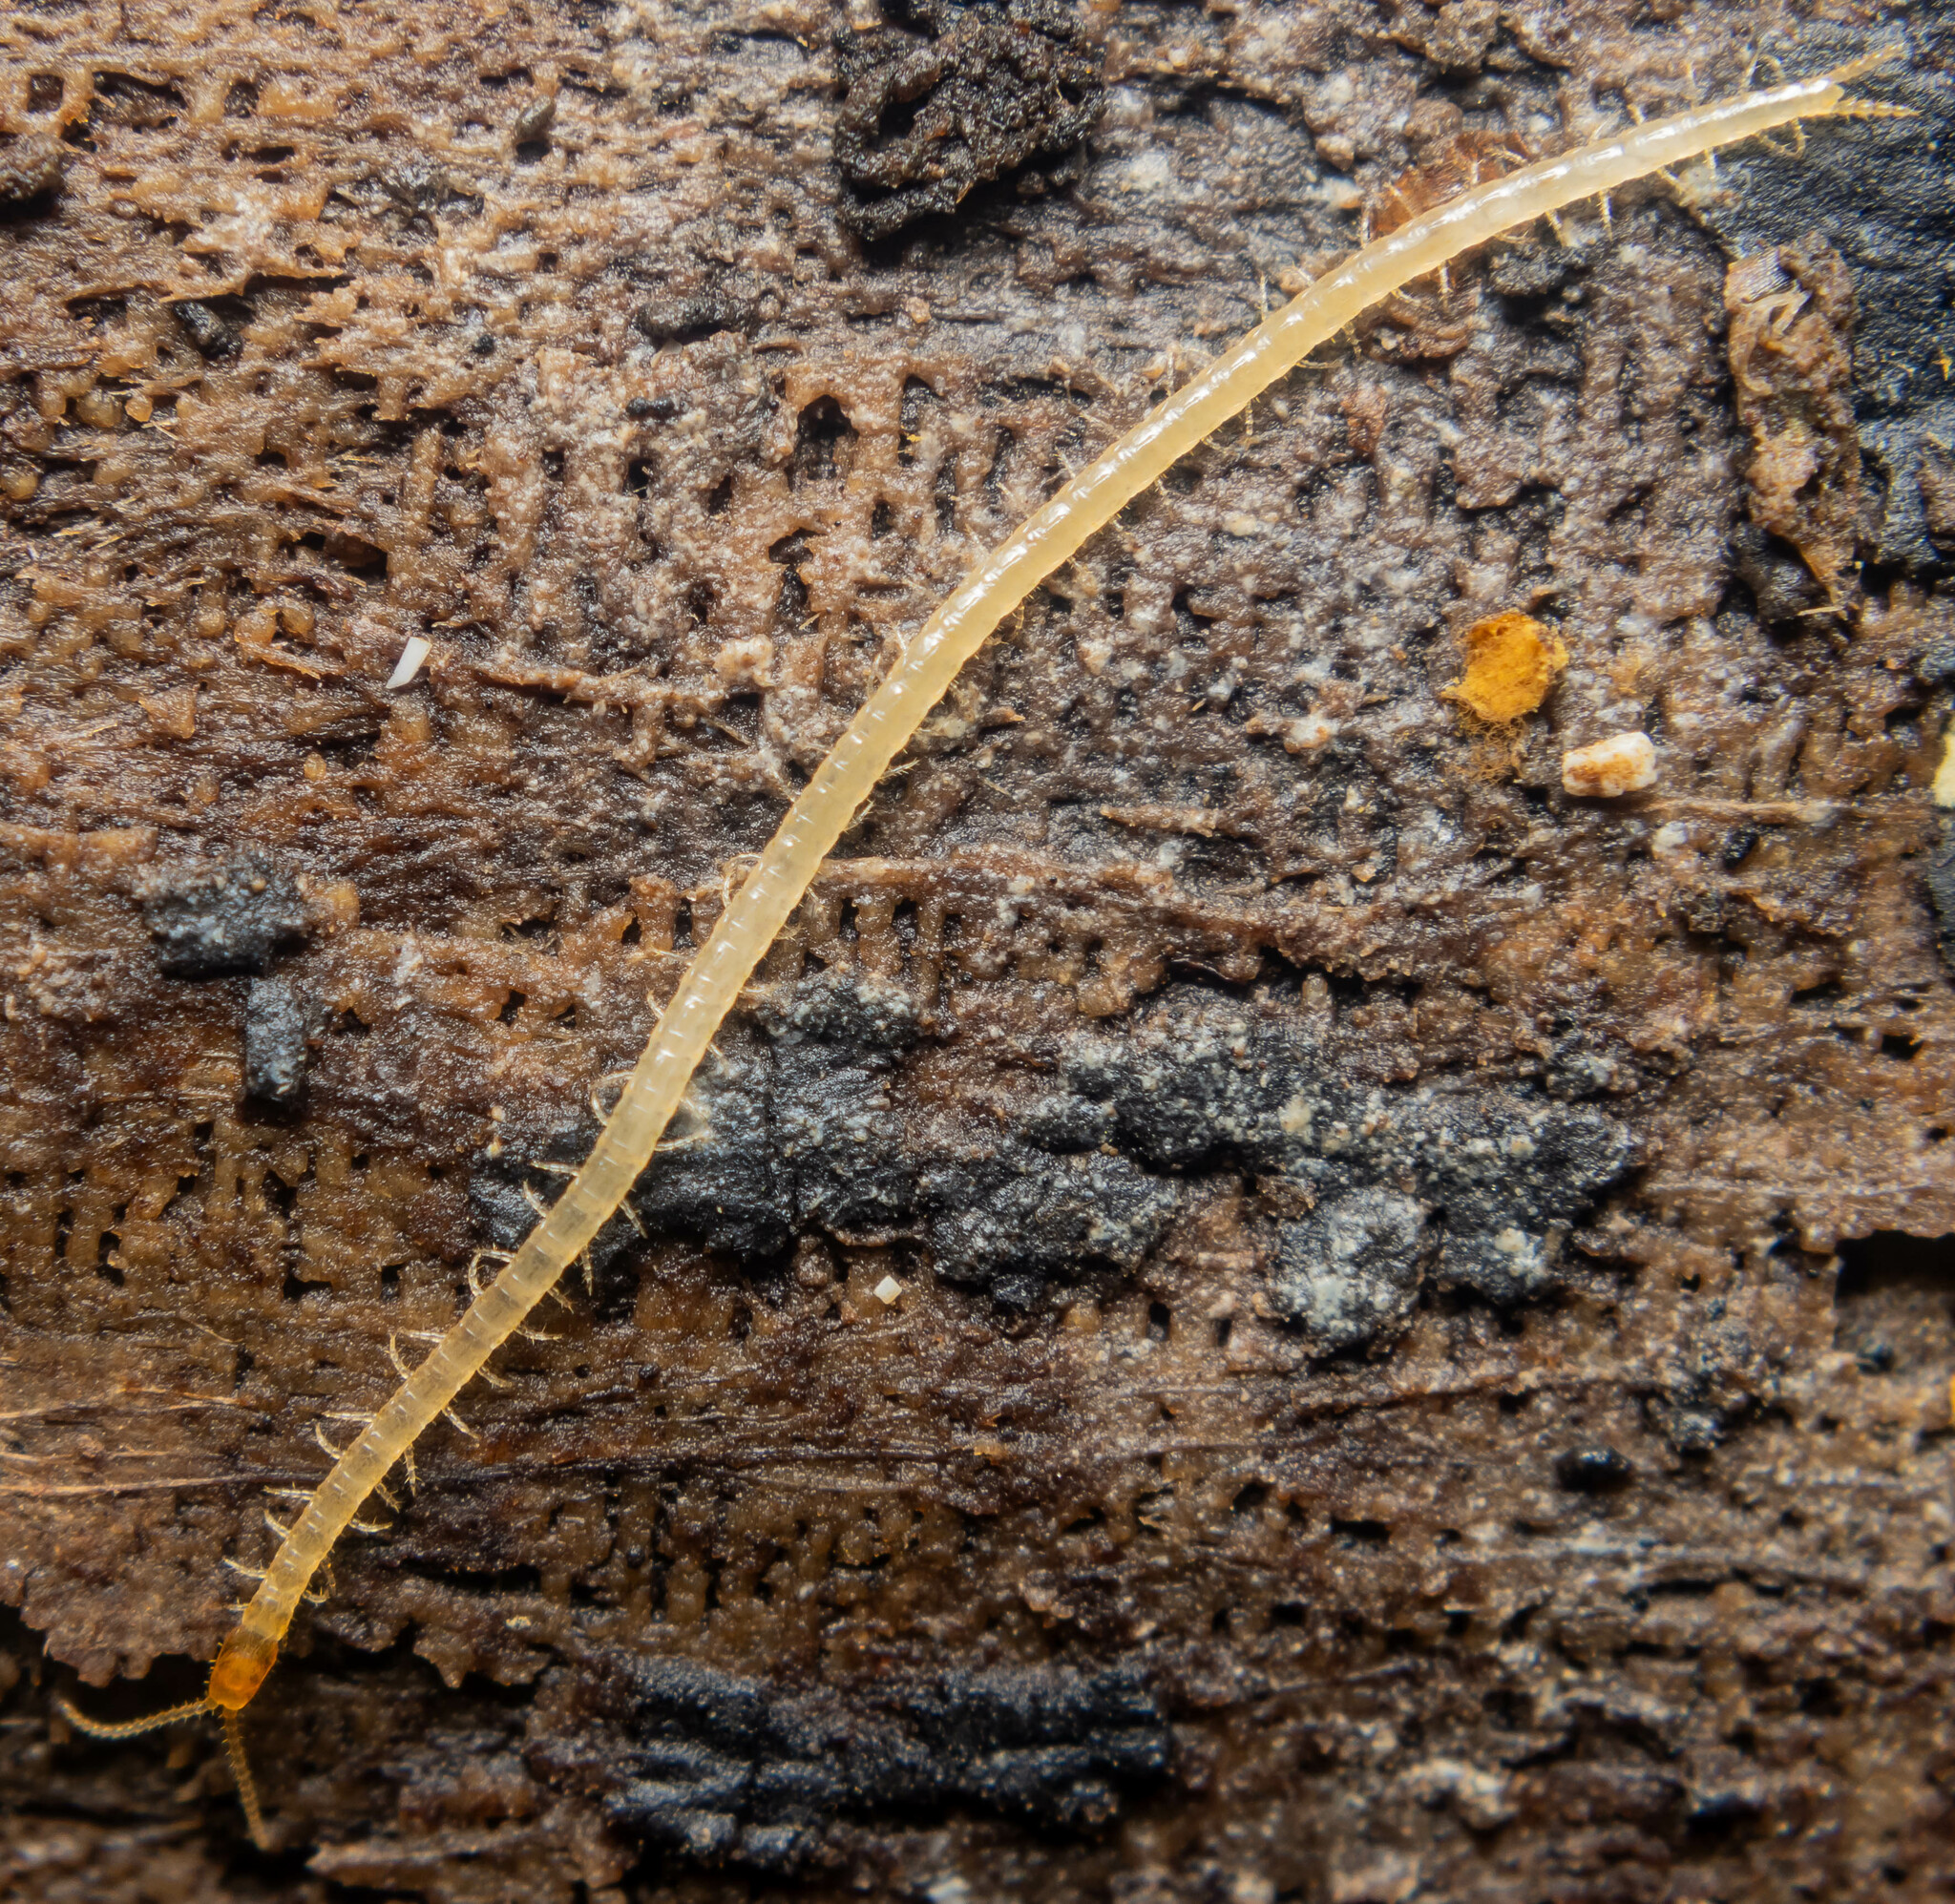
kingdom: Animalia
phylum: Arthropoda
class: Chilopoda
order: Geophilomorpha
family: Schendylidae
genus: Schendyla
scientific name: Schendyla nemorensis
